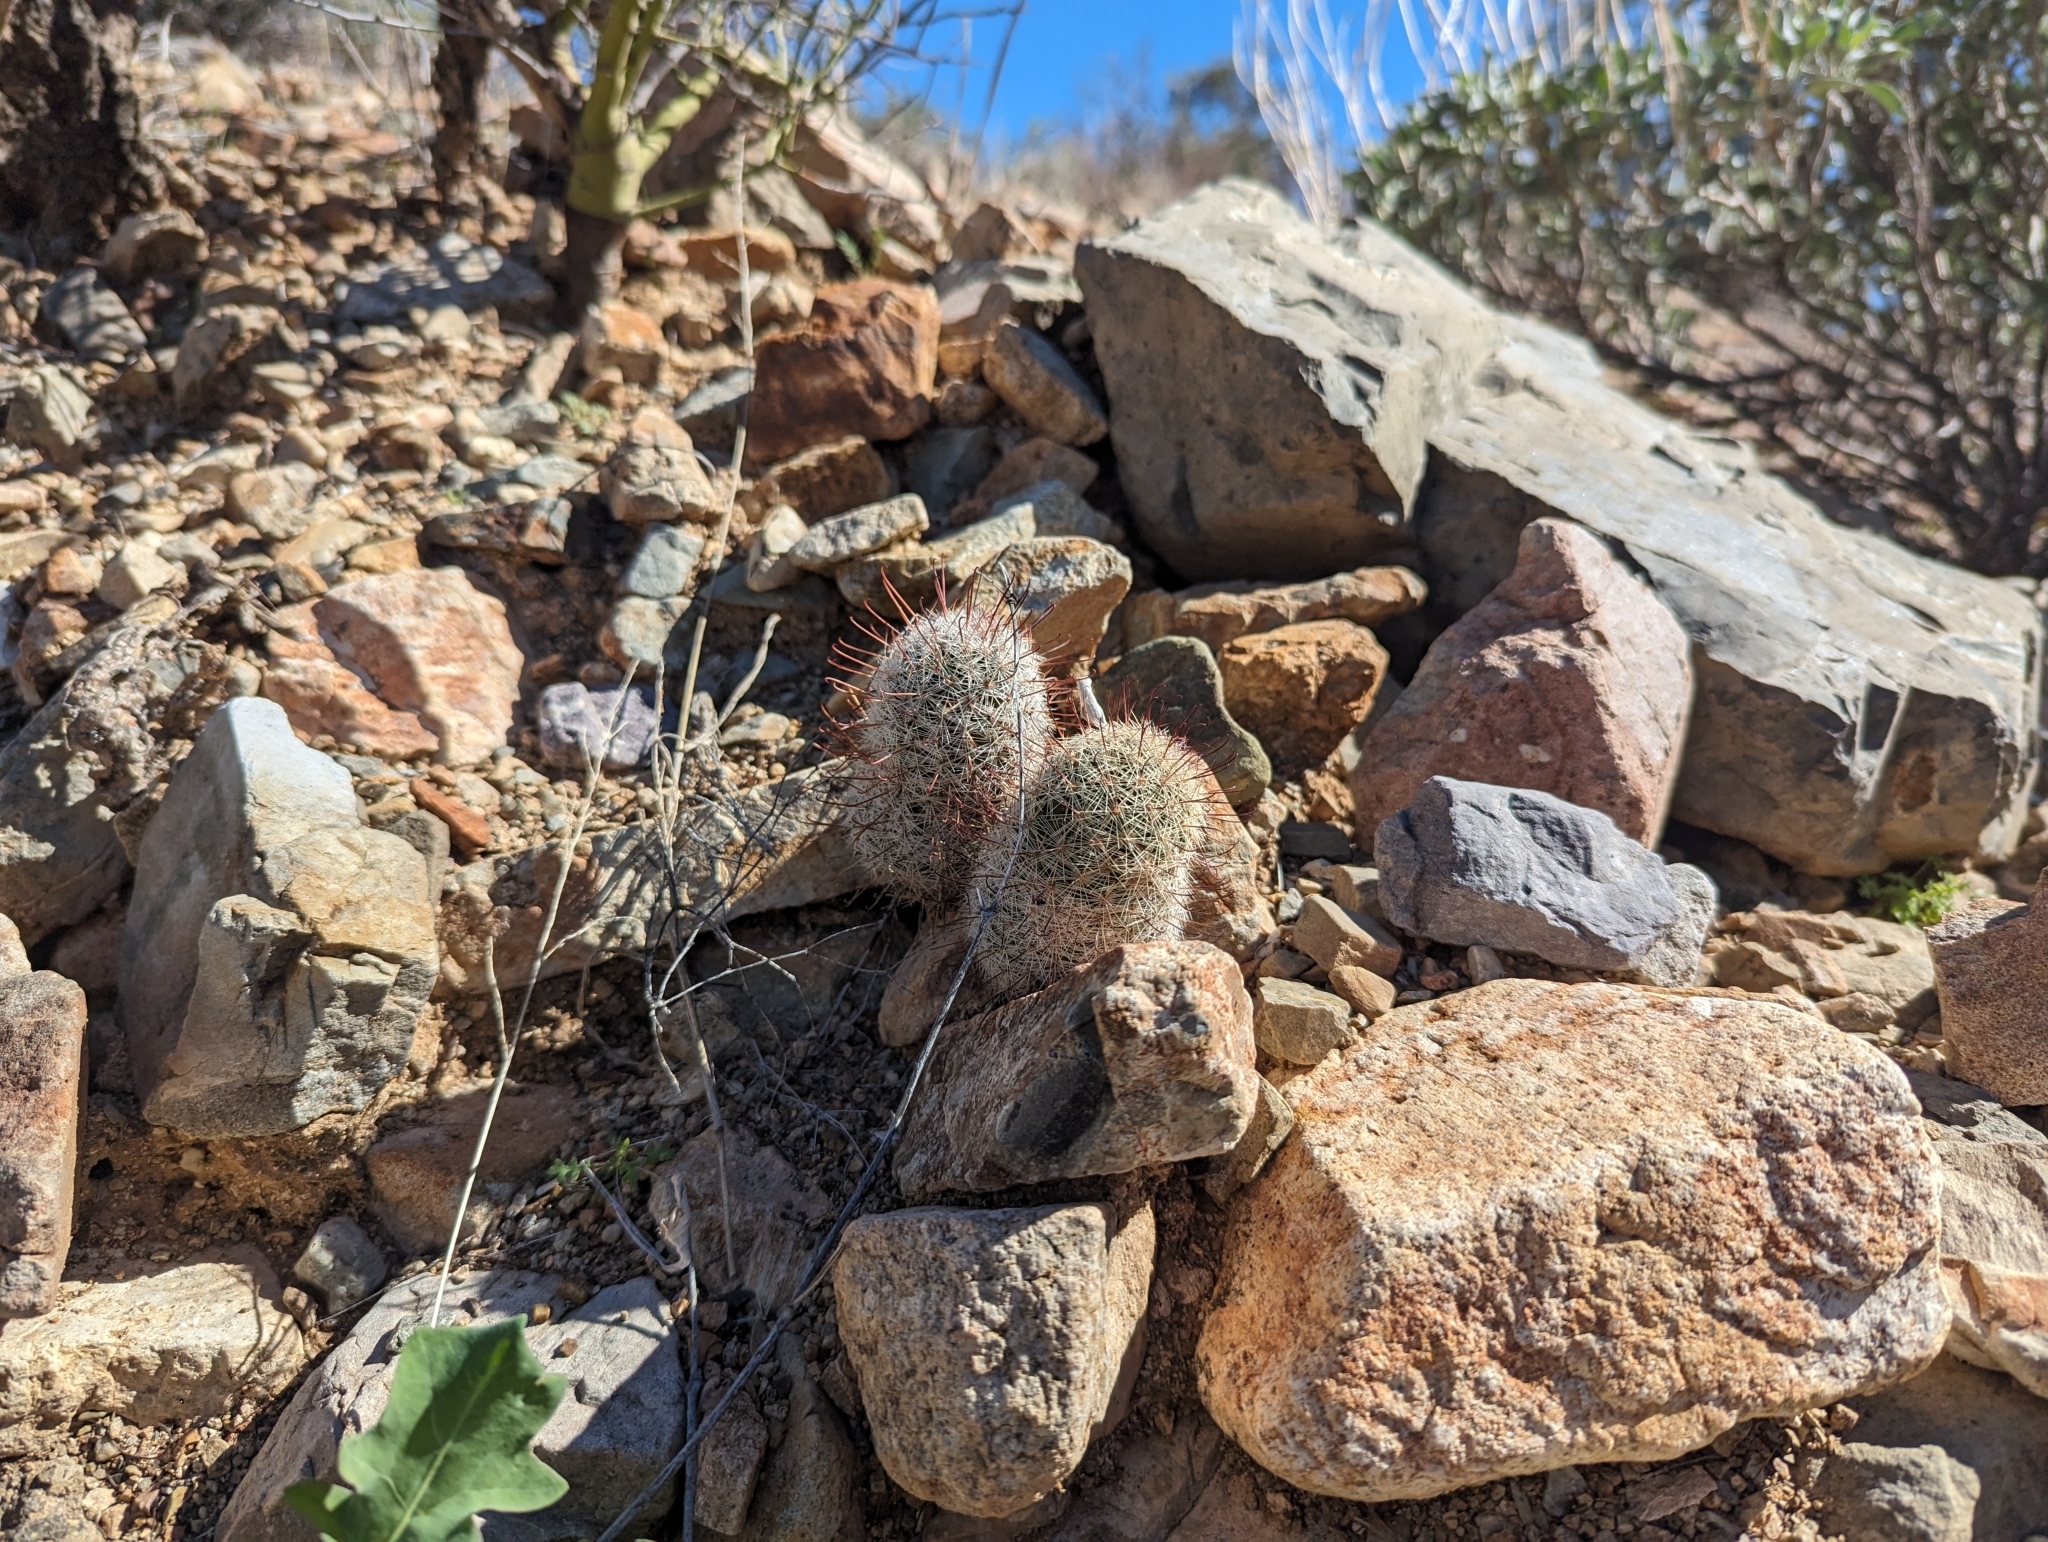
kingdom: Plantae
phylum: Tracheophyta
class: Magnoliopsida
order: Caryophyllales
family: Cactaceae
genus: Cochemiea
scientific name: Cochemiea grahamii
